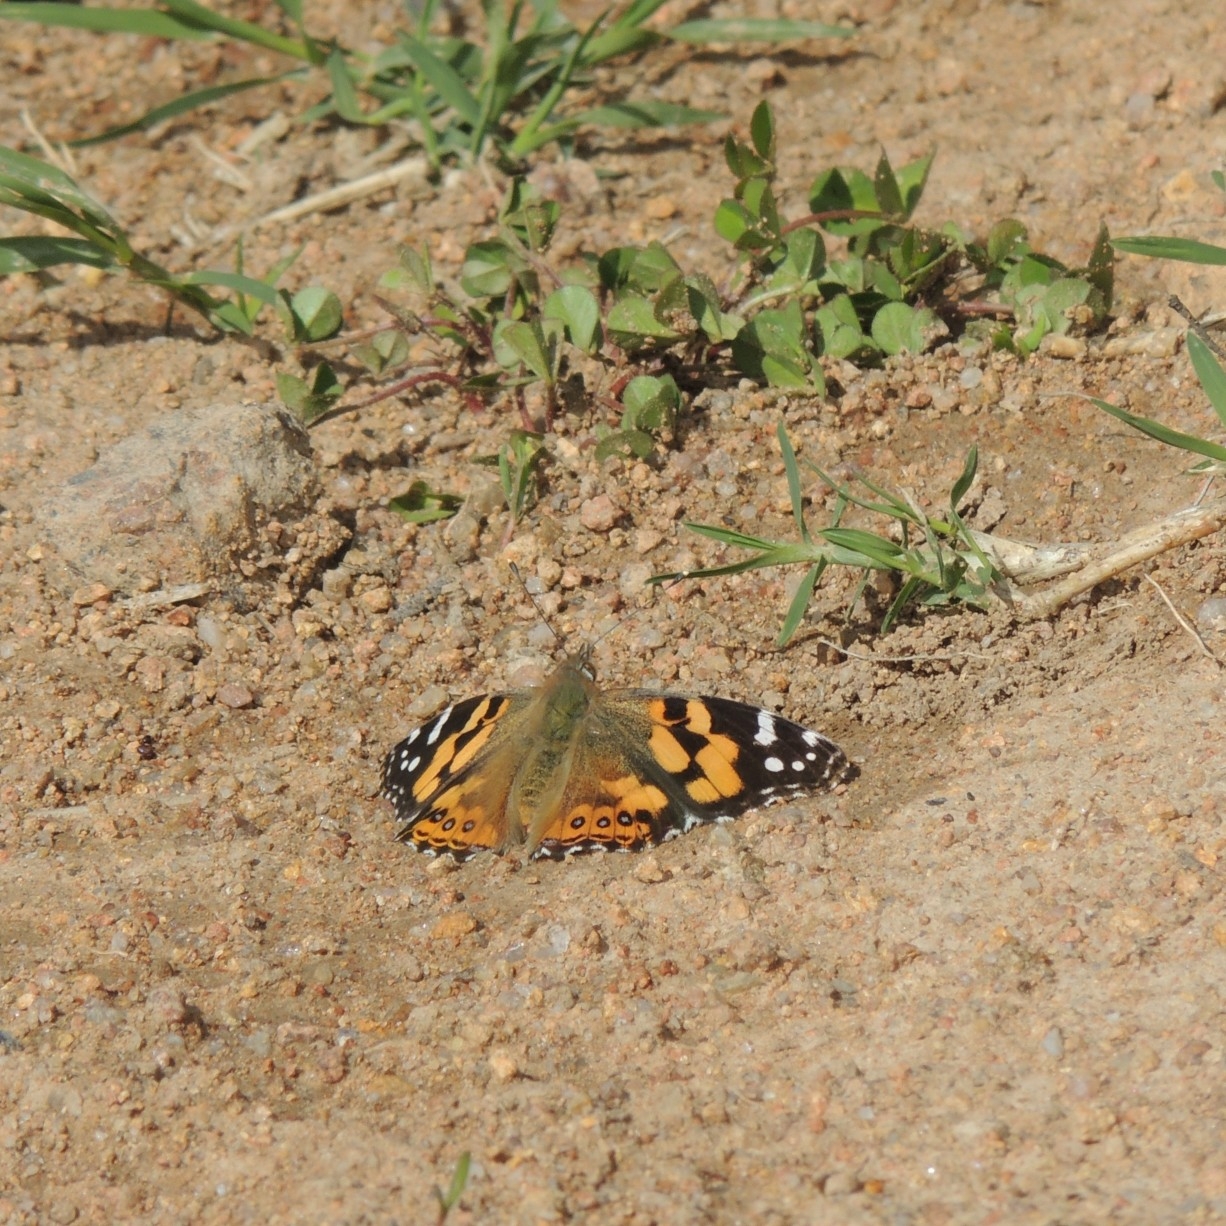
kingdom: Animalia
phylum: Arthropoda
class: Insecta
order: Lepidoptera
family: Nymphalidae
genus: Vanessa
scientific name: Vanessa kershawi
